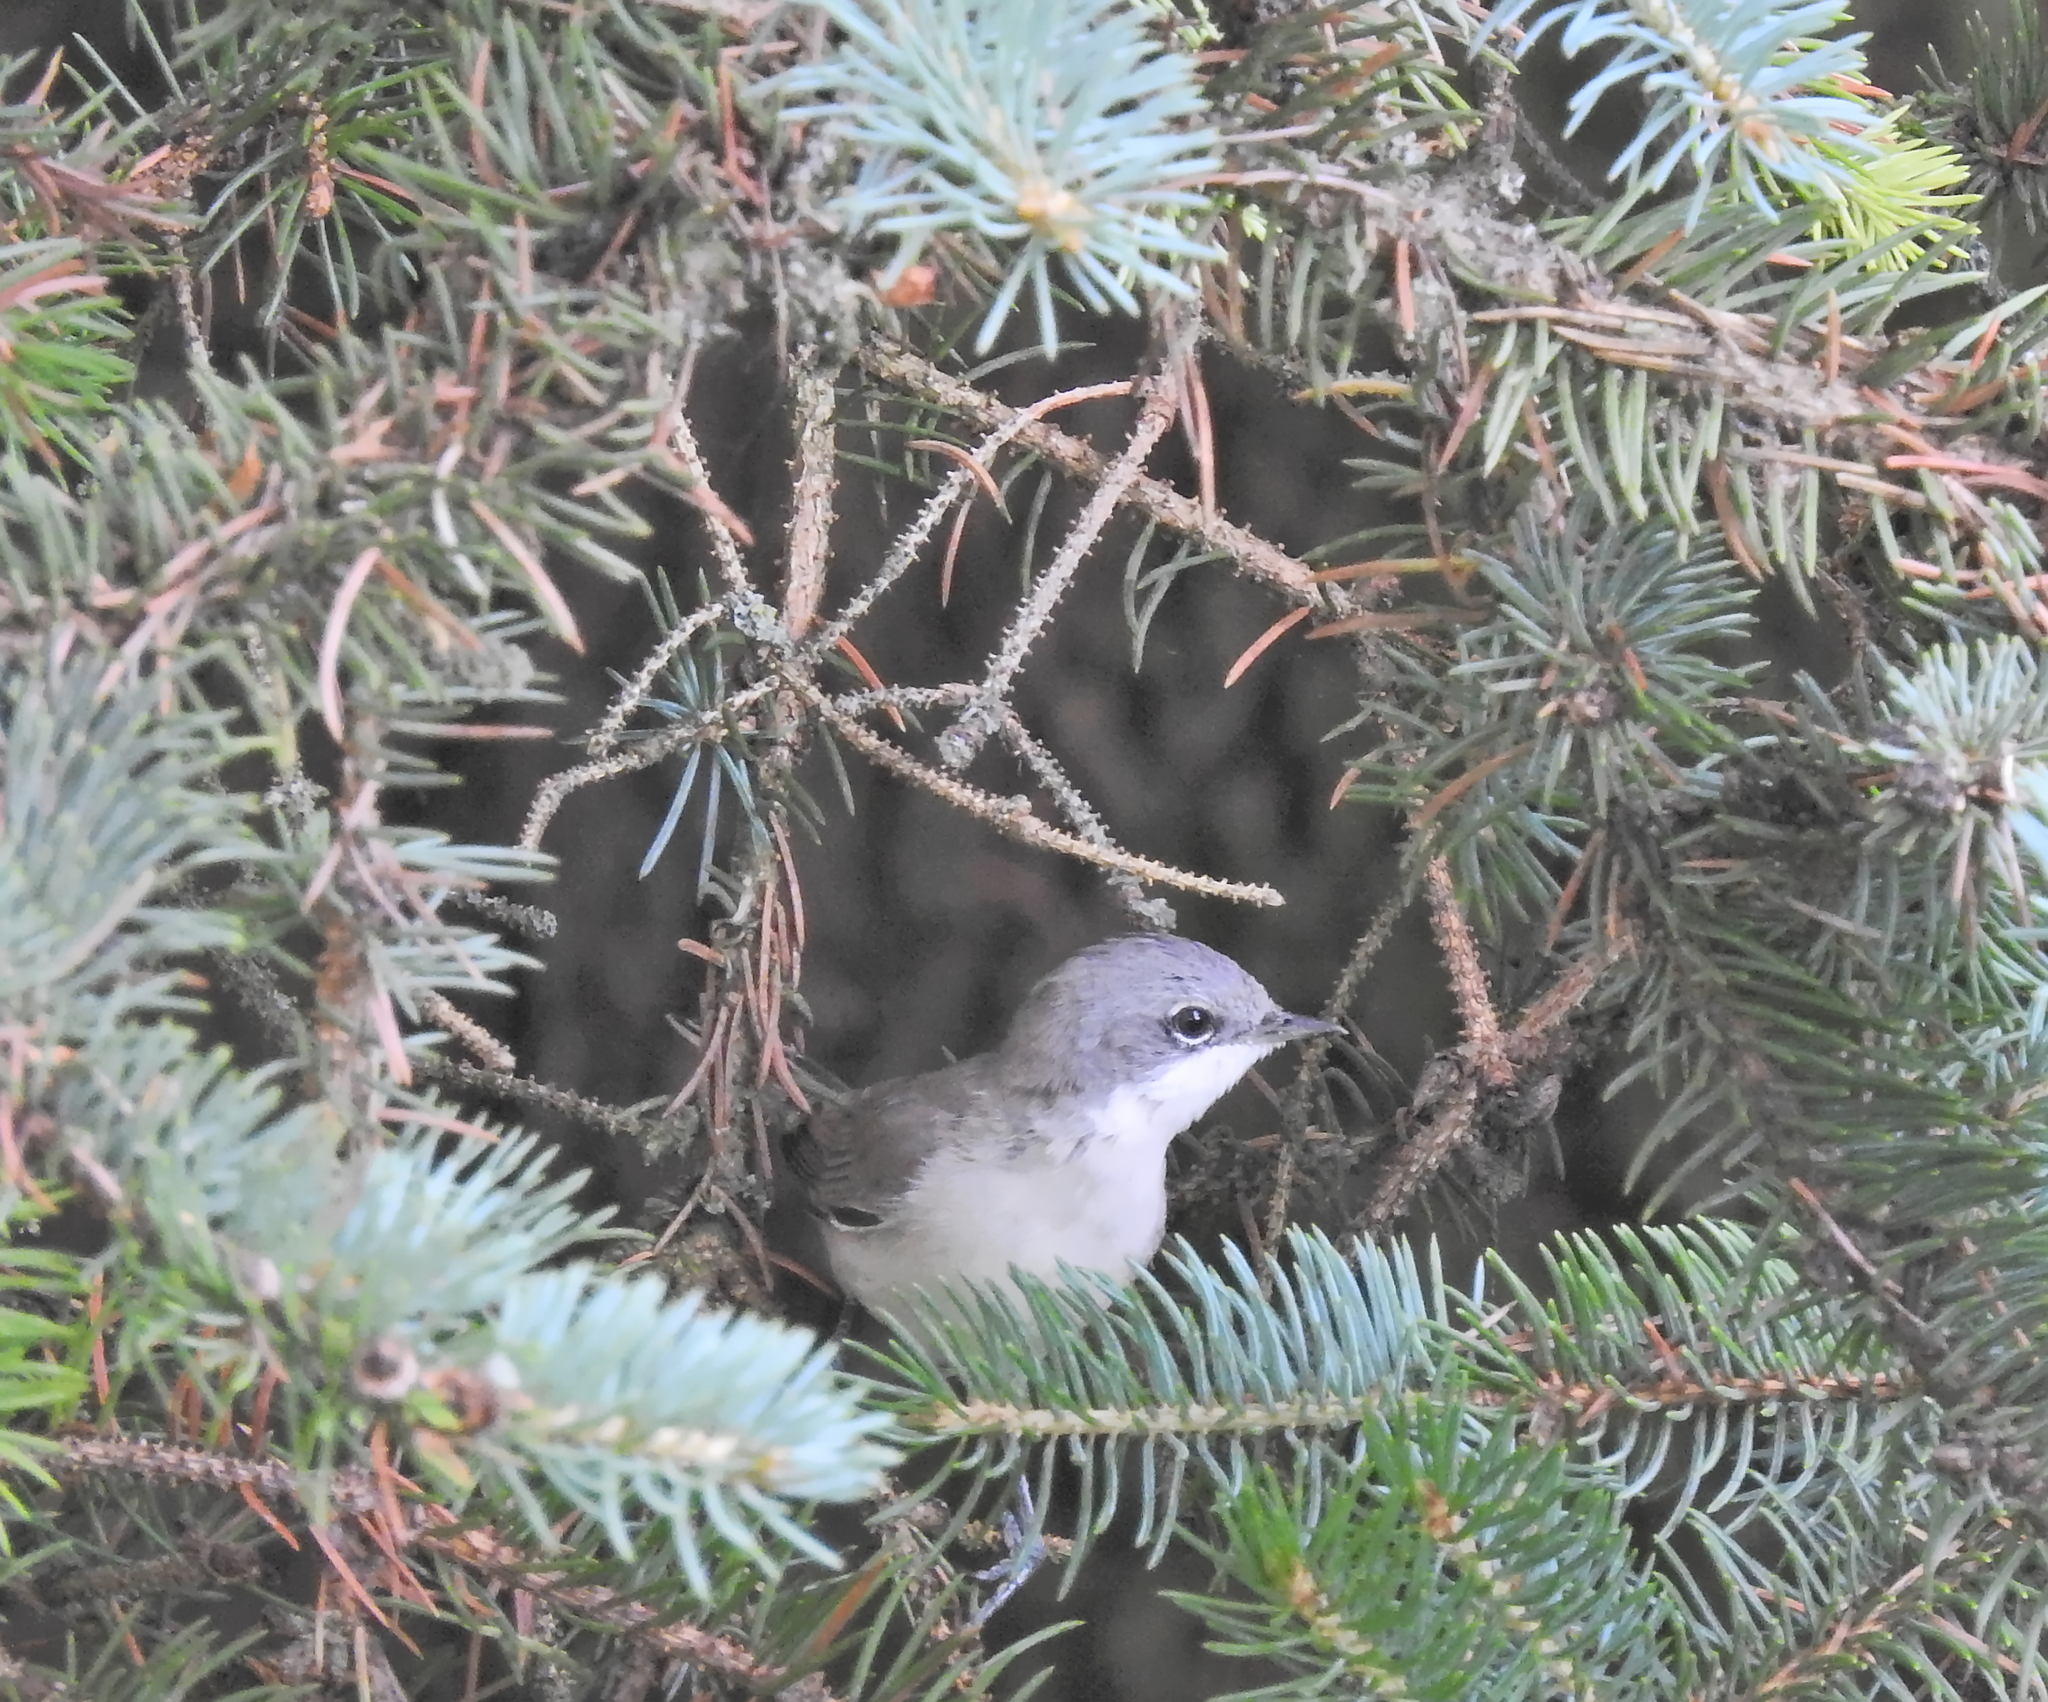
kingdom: Animalia
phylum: Chordata
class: Aves
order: Passeriformes
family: Sylviidae
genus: Sylvia
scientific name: Sylvia curruca
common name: Lesser whitethroat
